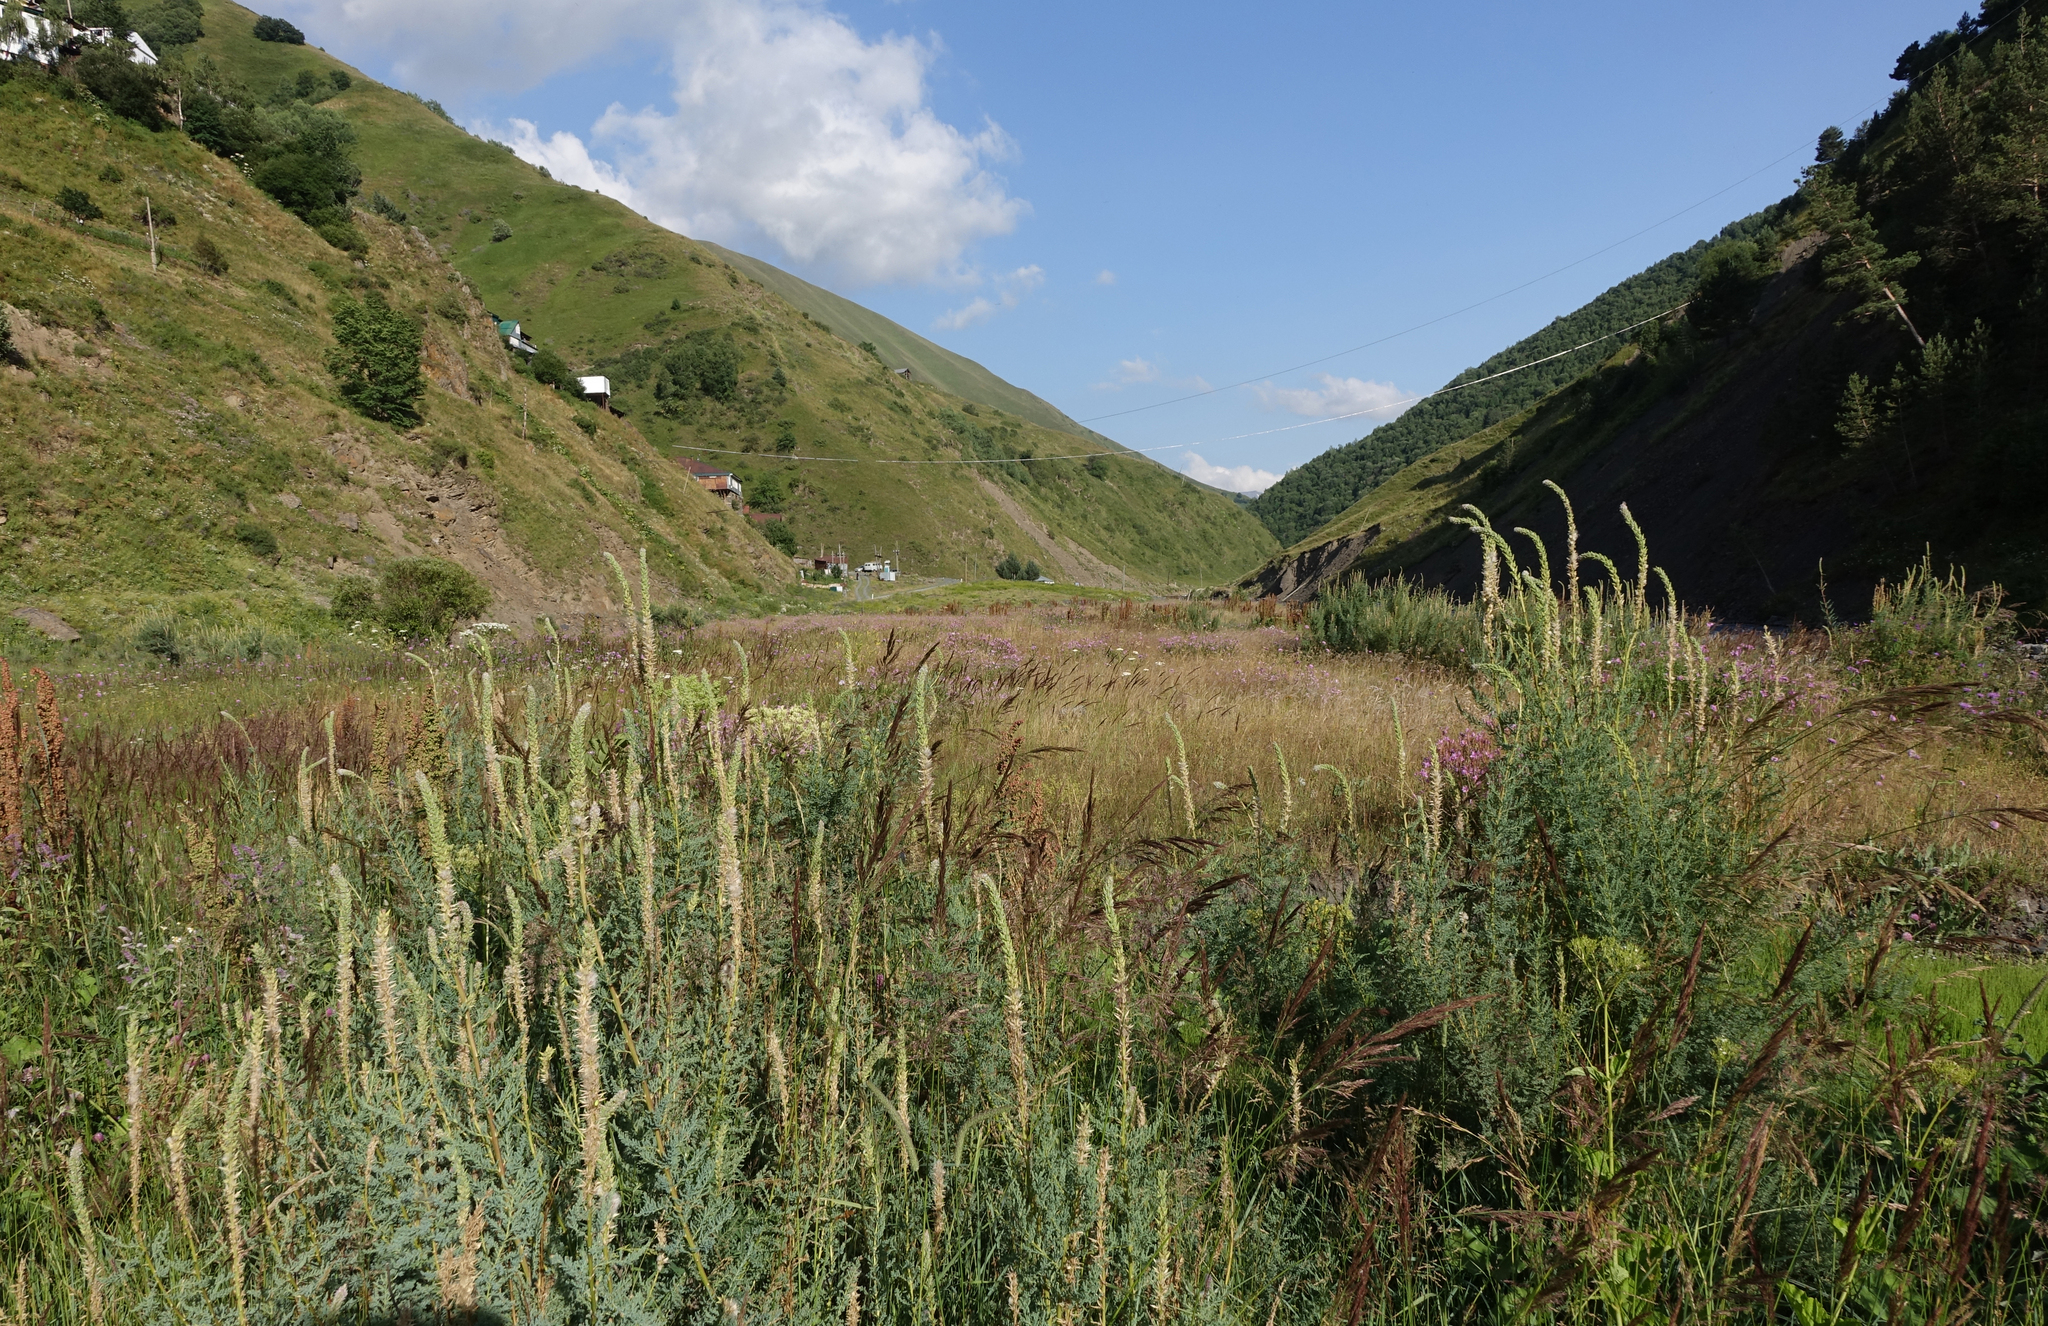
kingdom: Plantae
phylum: Tracheophyta
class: Magnoliopsida
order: Caryophyllales
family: Tamaricaceae
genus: Myricaria
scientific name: Myricaria bracteata
